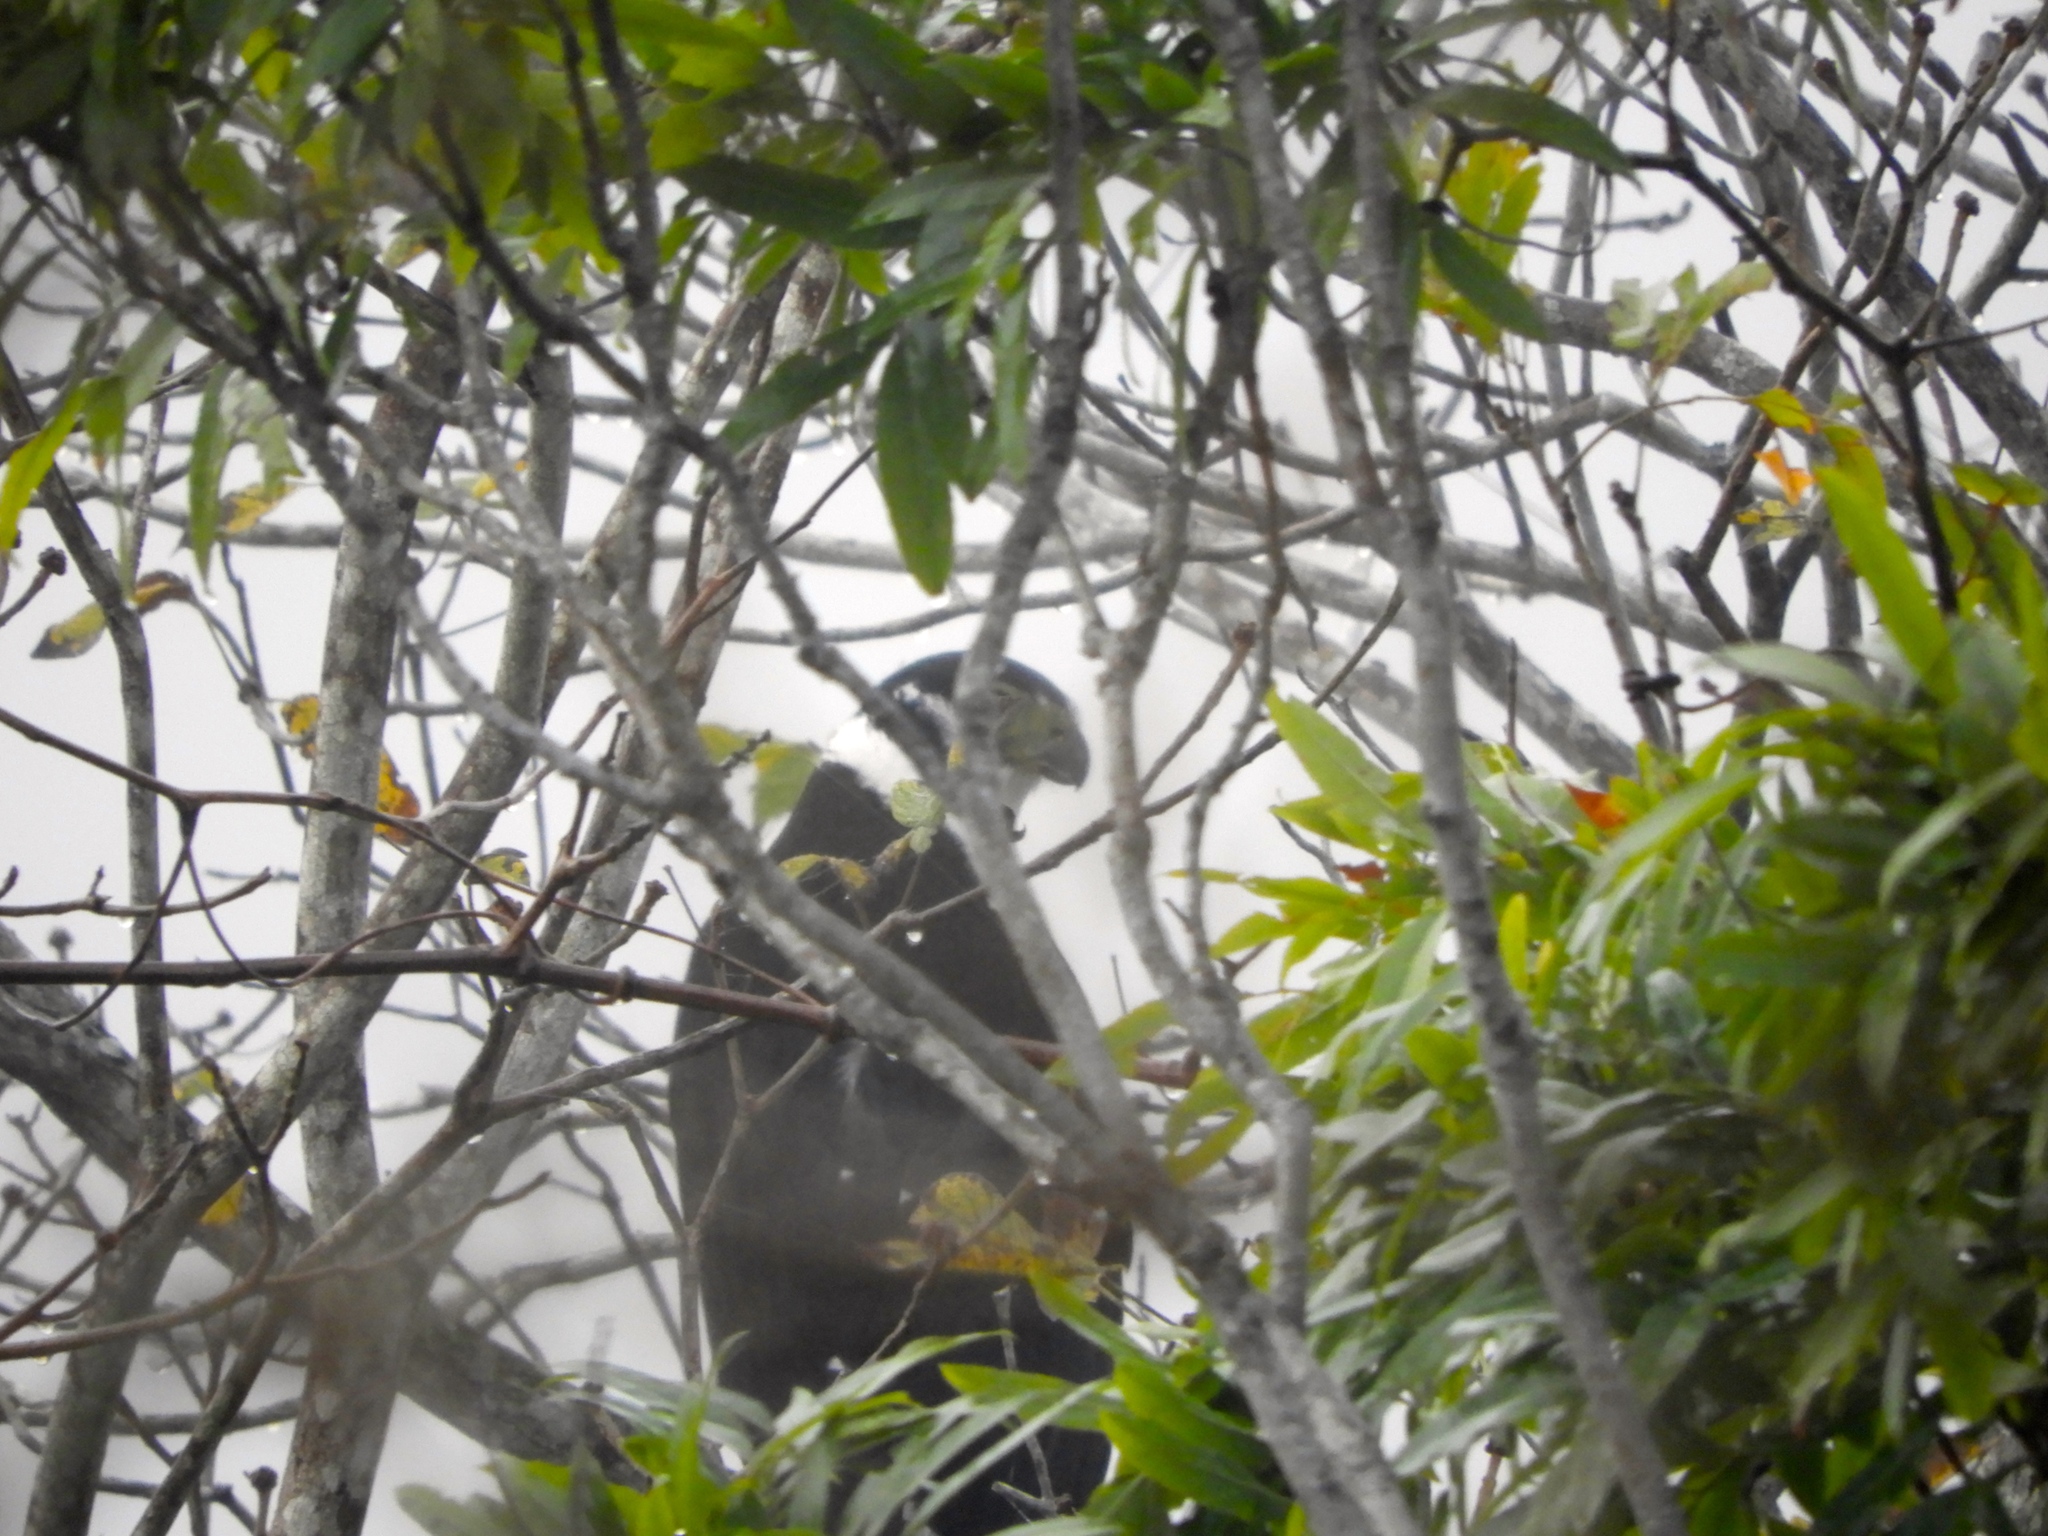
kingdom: Animalia
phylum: Chordata
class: Aves
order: Falconiformes
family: Falconidae
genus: Micrastur
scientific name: Micrastur semitorquatus
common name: Collared forest-falcon
